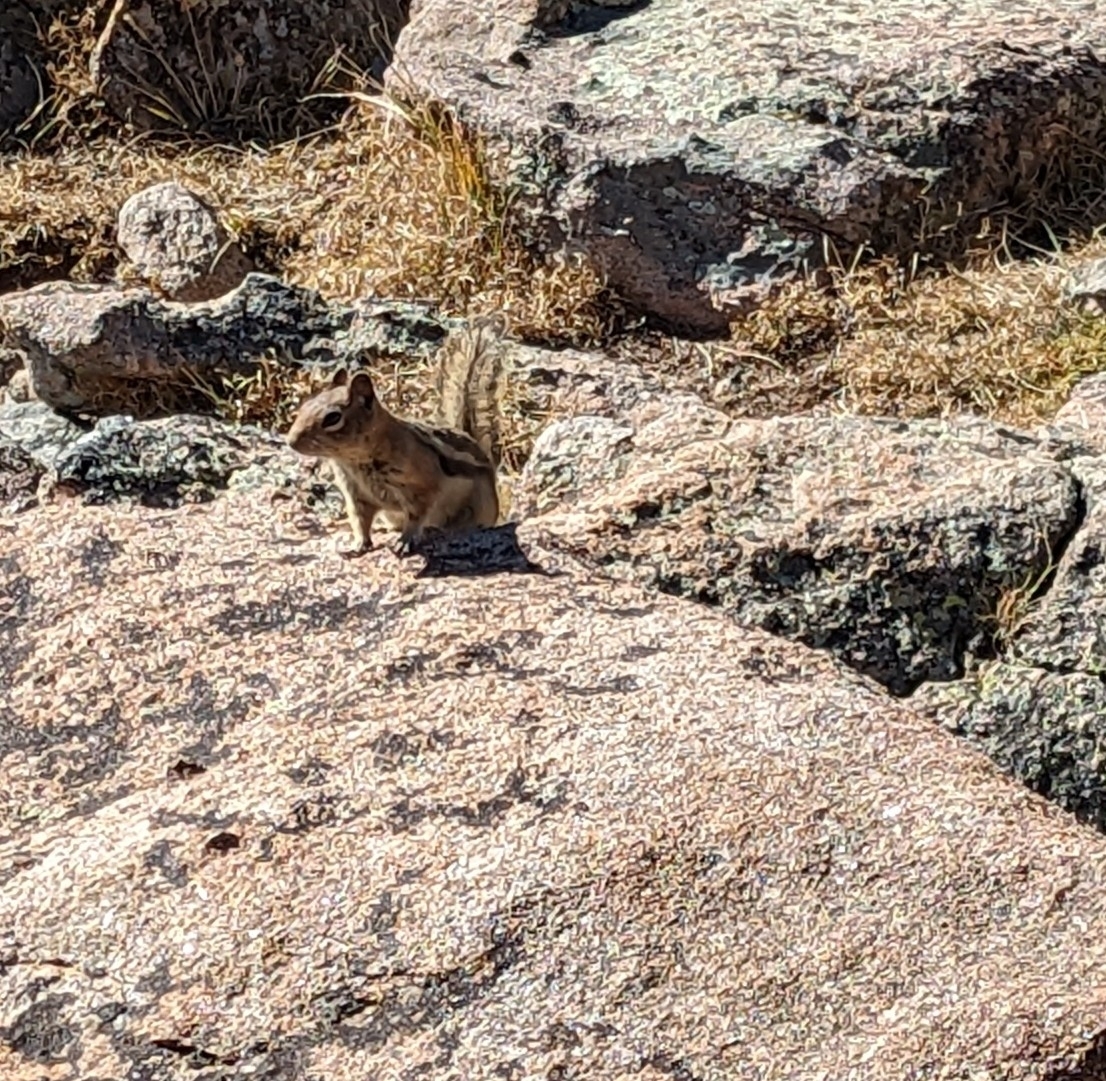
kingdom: Animalia
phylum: Chordata
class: Mammalia
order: Rodentia
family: Sciuridae
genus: Callospermophilus
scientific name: Callospermophilus lateralis
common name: Golden-mantled ground squirrel
